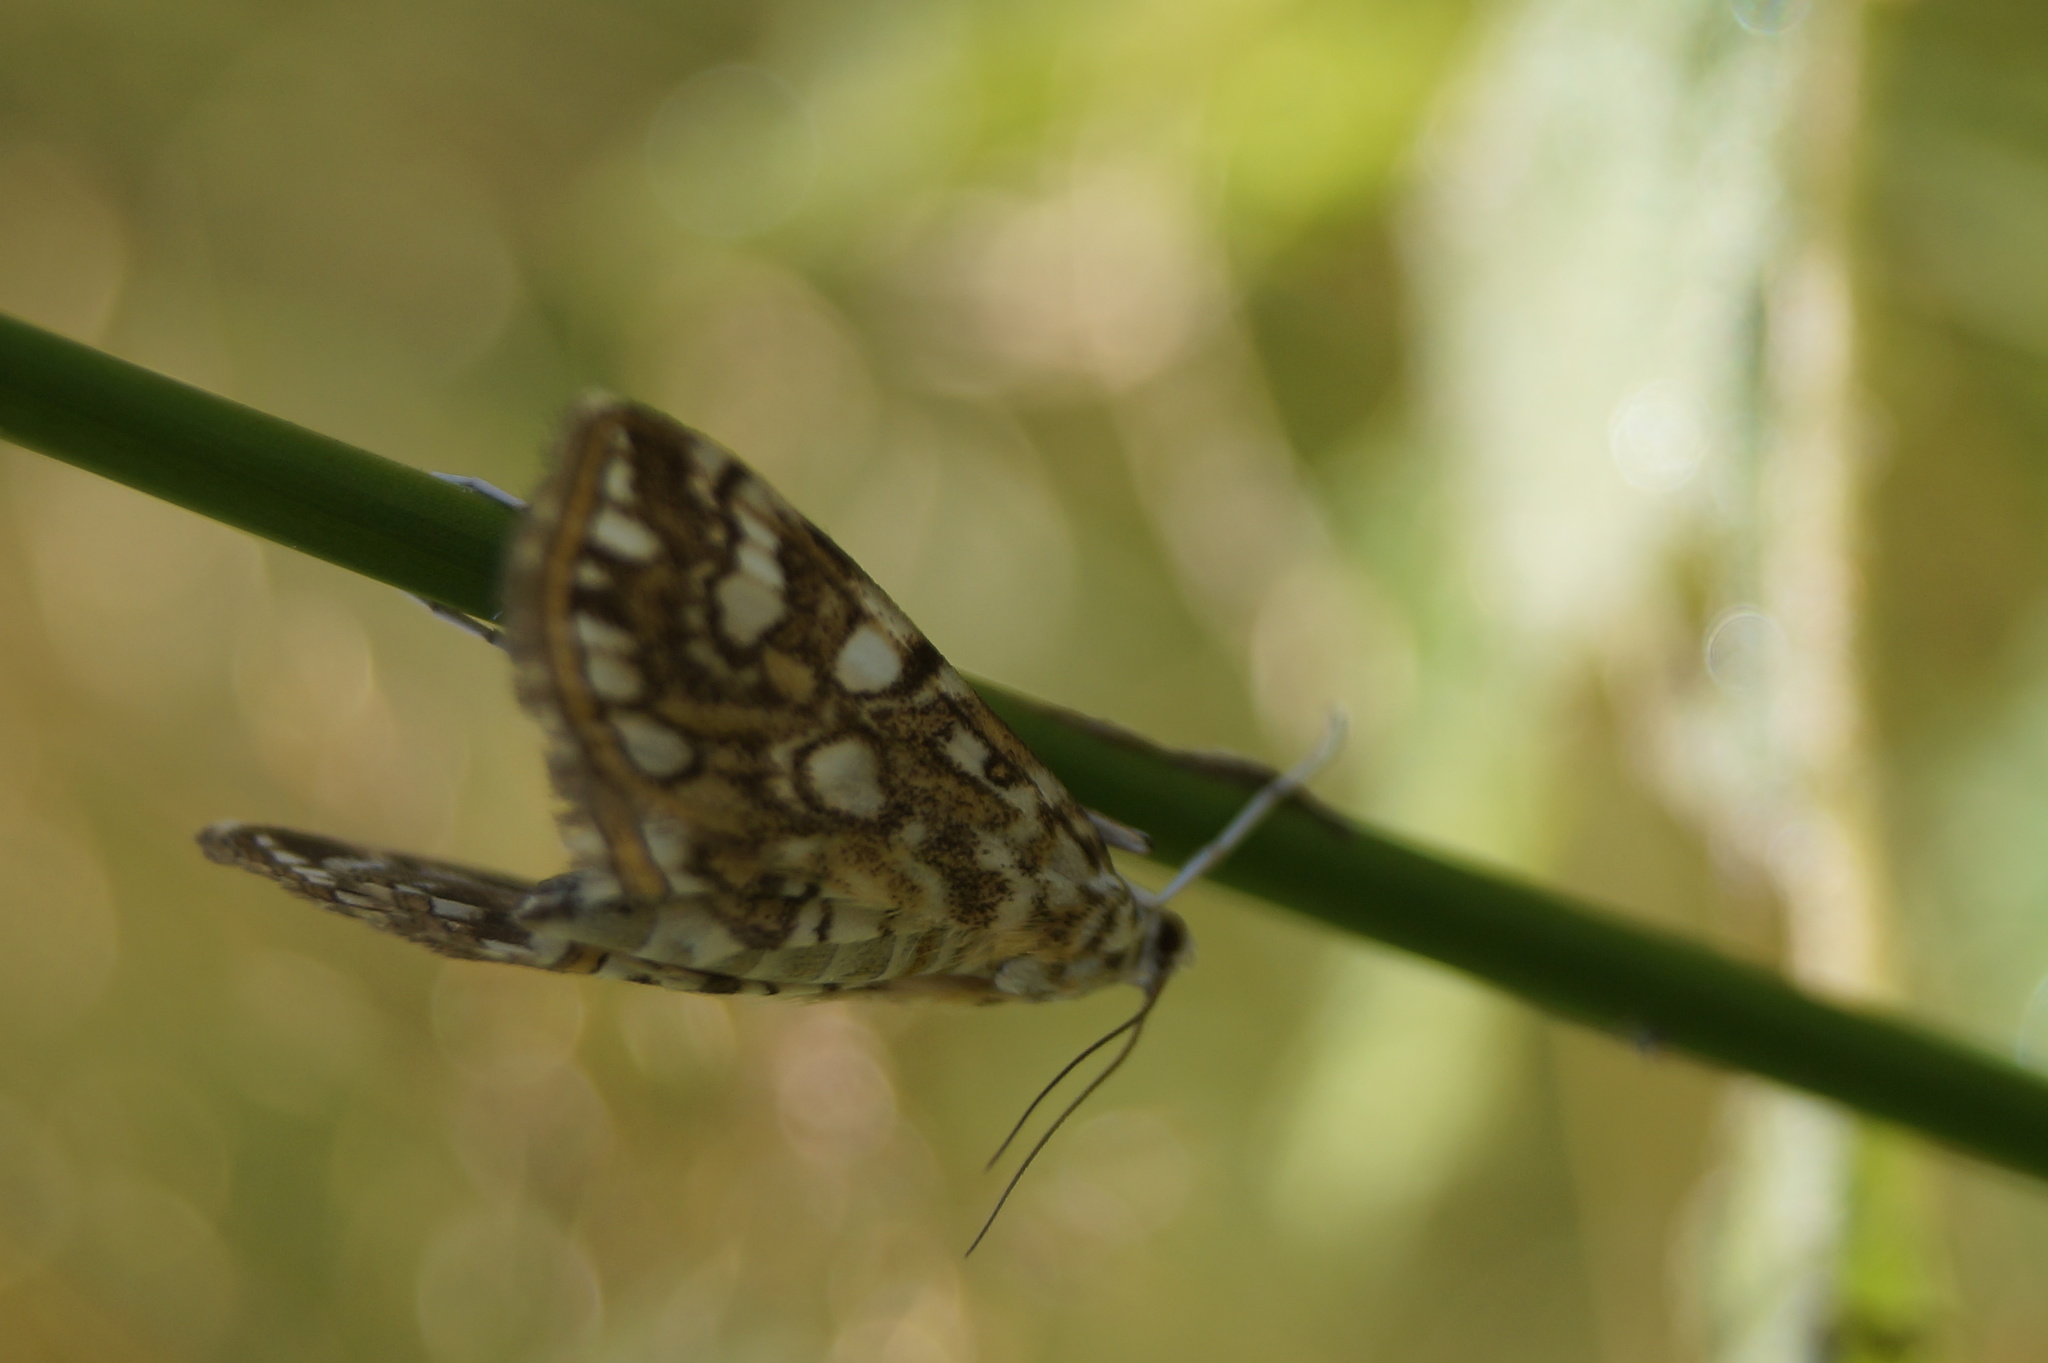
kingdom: Animalia
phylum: Arthropoda
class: Insecta
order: Lepidoptera
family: Crambidae
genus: Elophila
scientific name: Elophila nymphaeata
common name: Brown china-mark
